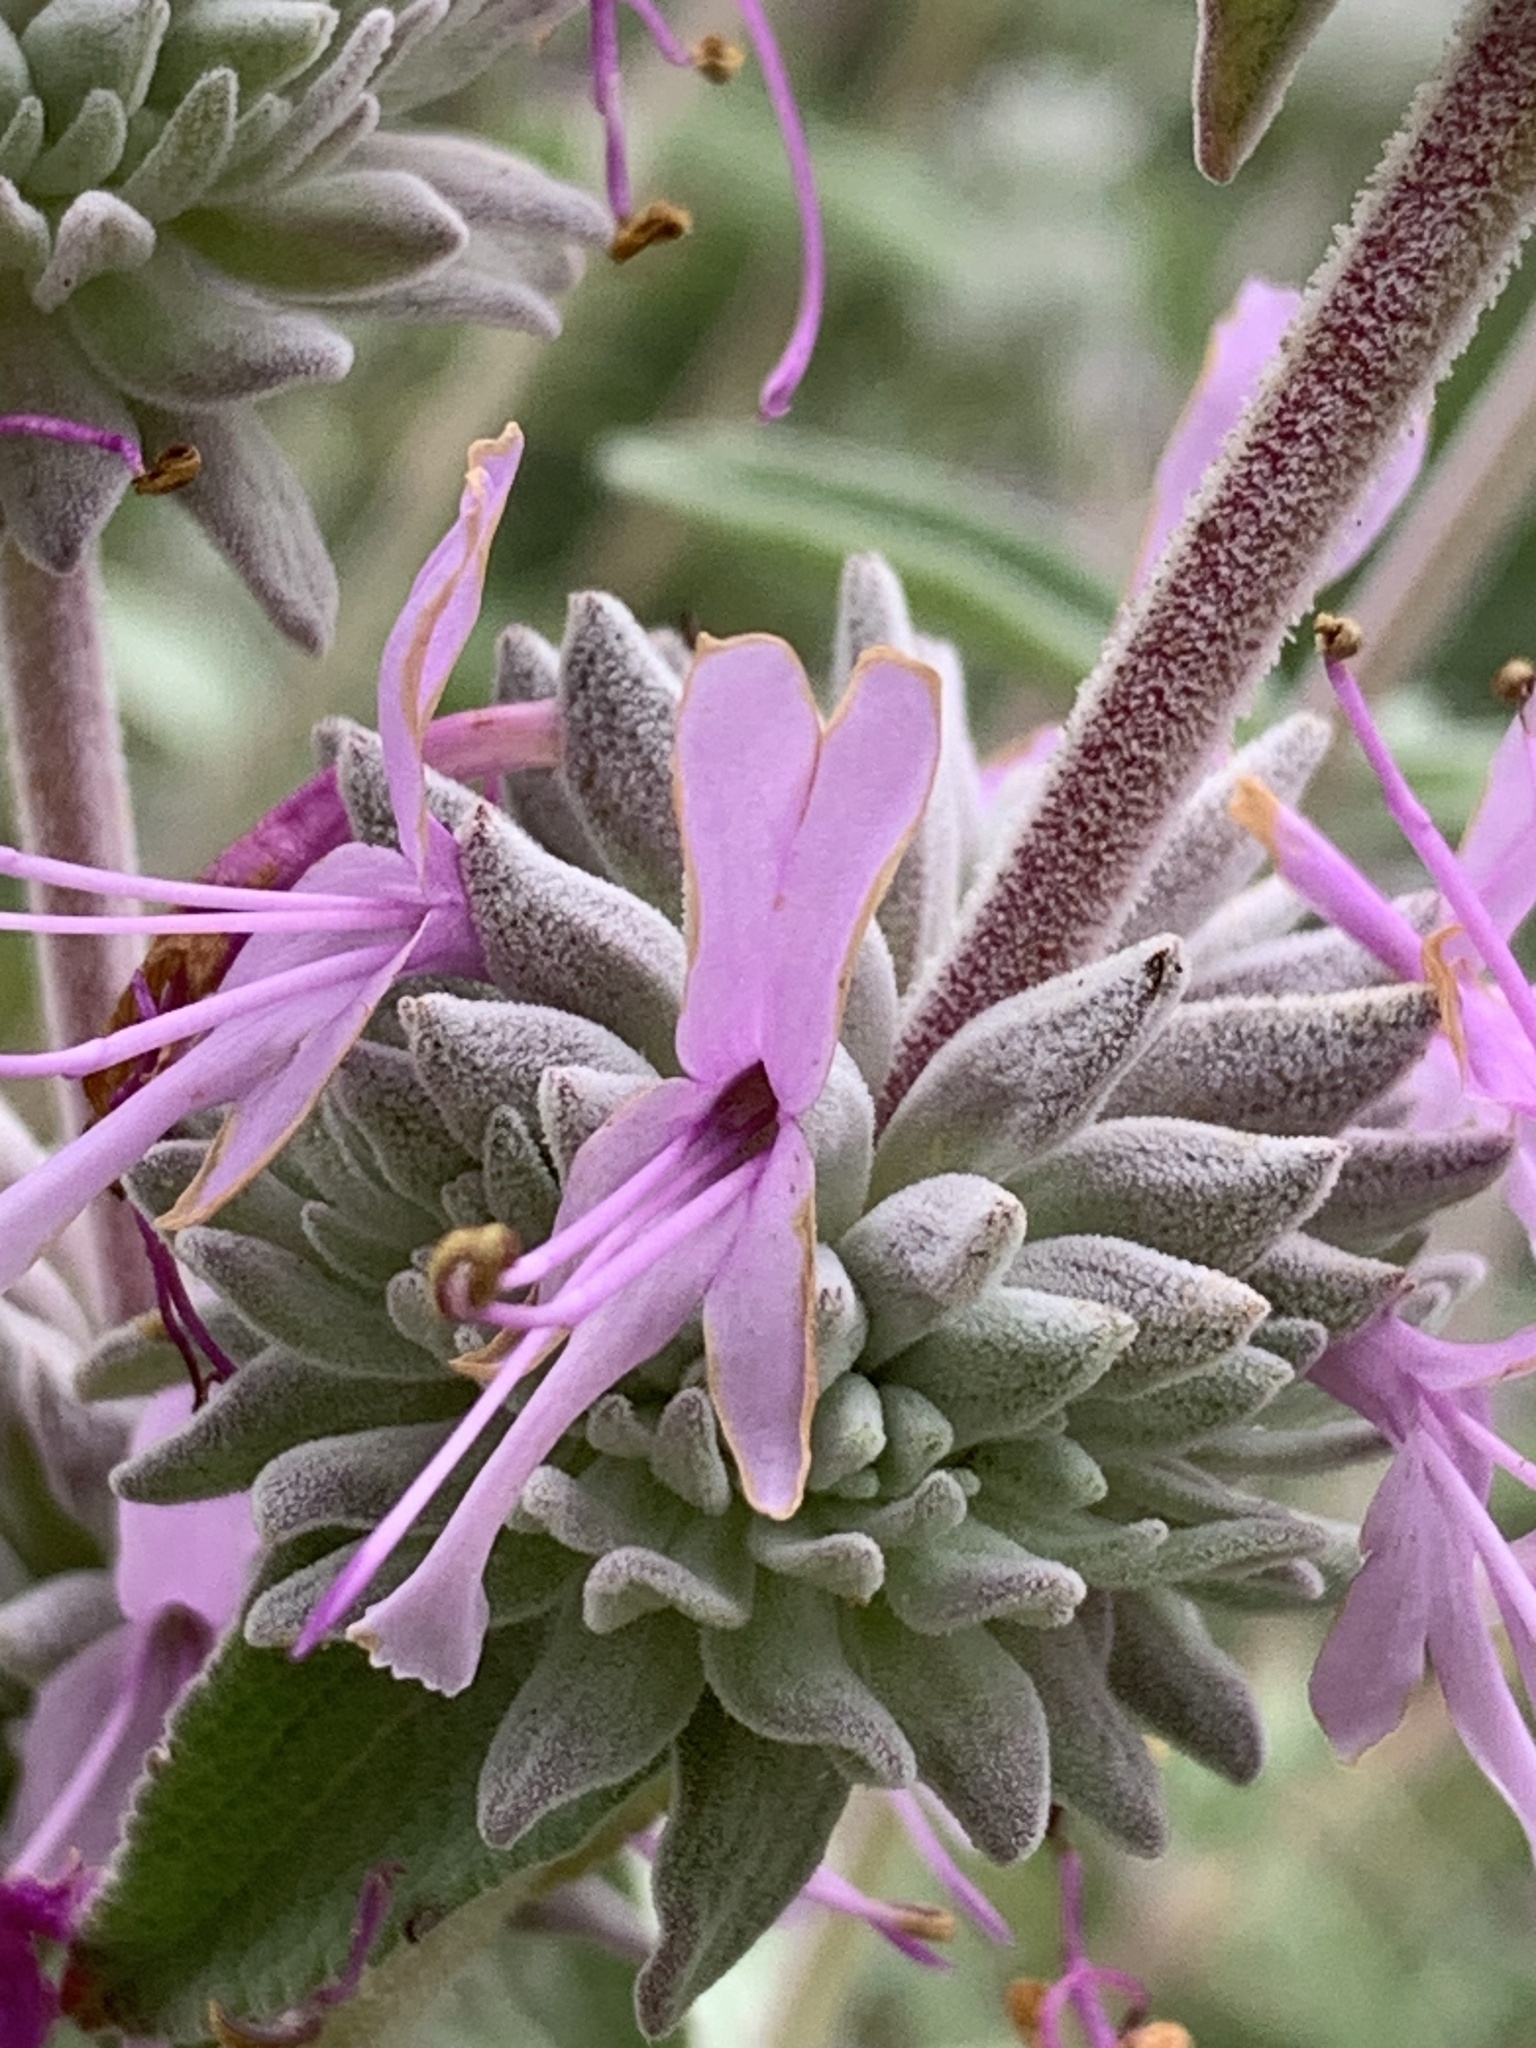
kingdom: Plantae
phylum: Tracheophyta
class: Magnoliopsida
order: Lamiales
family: Lamiaceae
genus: Salvia
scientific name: Salvia leucophylla
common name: Purple sage
